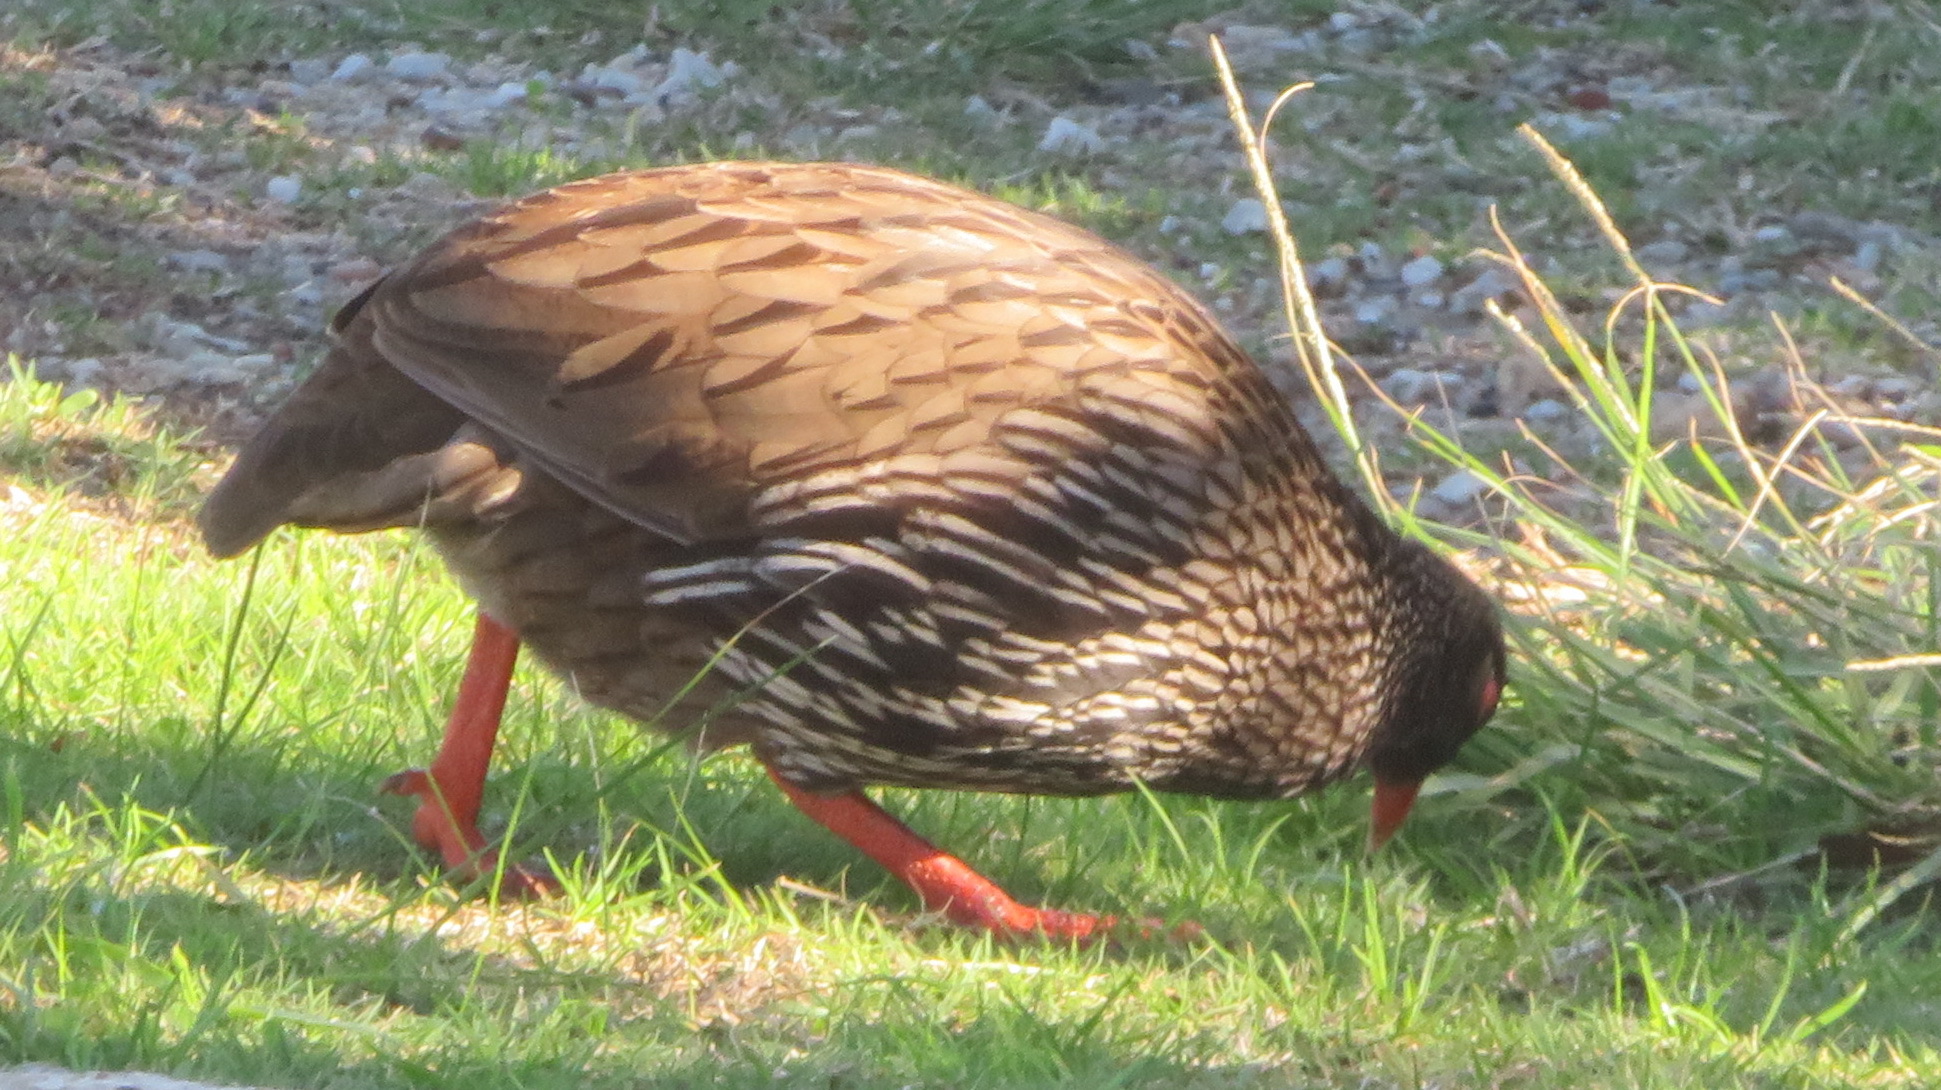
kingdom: Animalia
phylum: Chordata
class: Aves
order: Galliformes
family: Phasianidae
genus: Pternistis
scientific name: Pternistis afer
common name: Red-necked spurfowl
